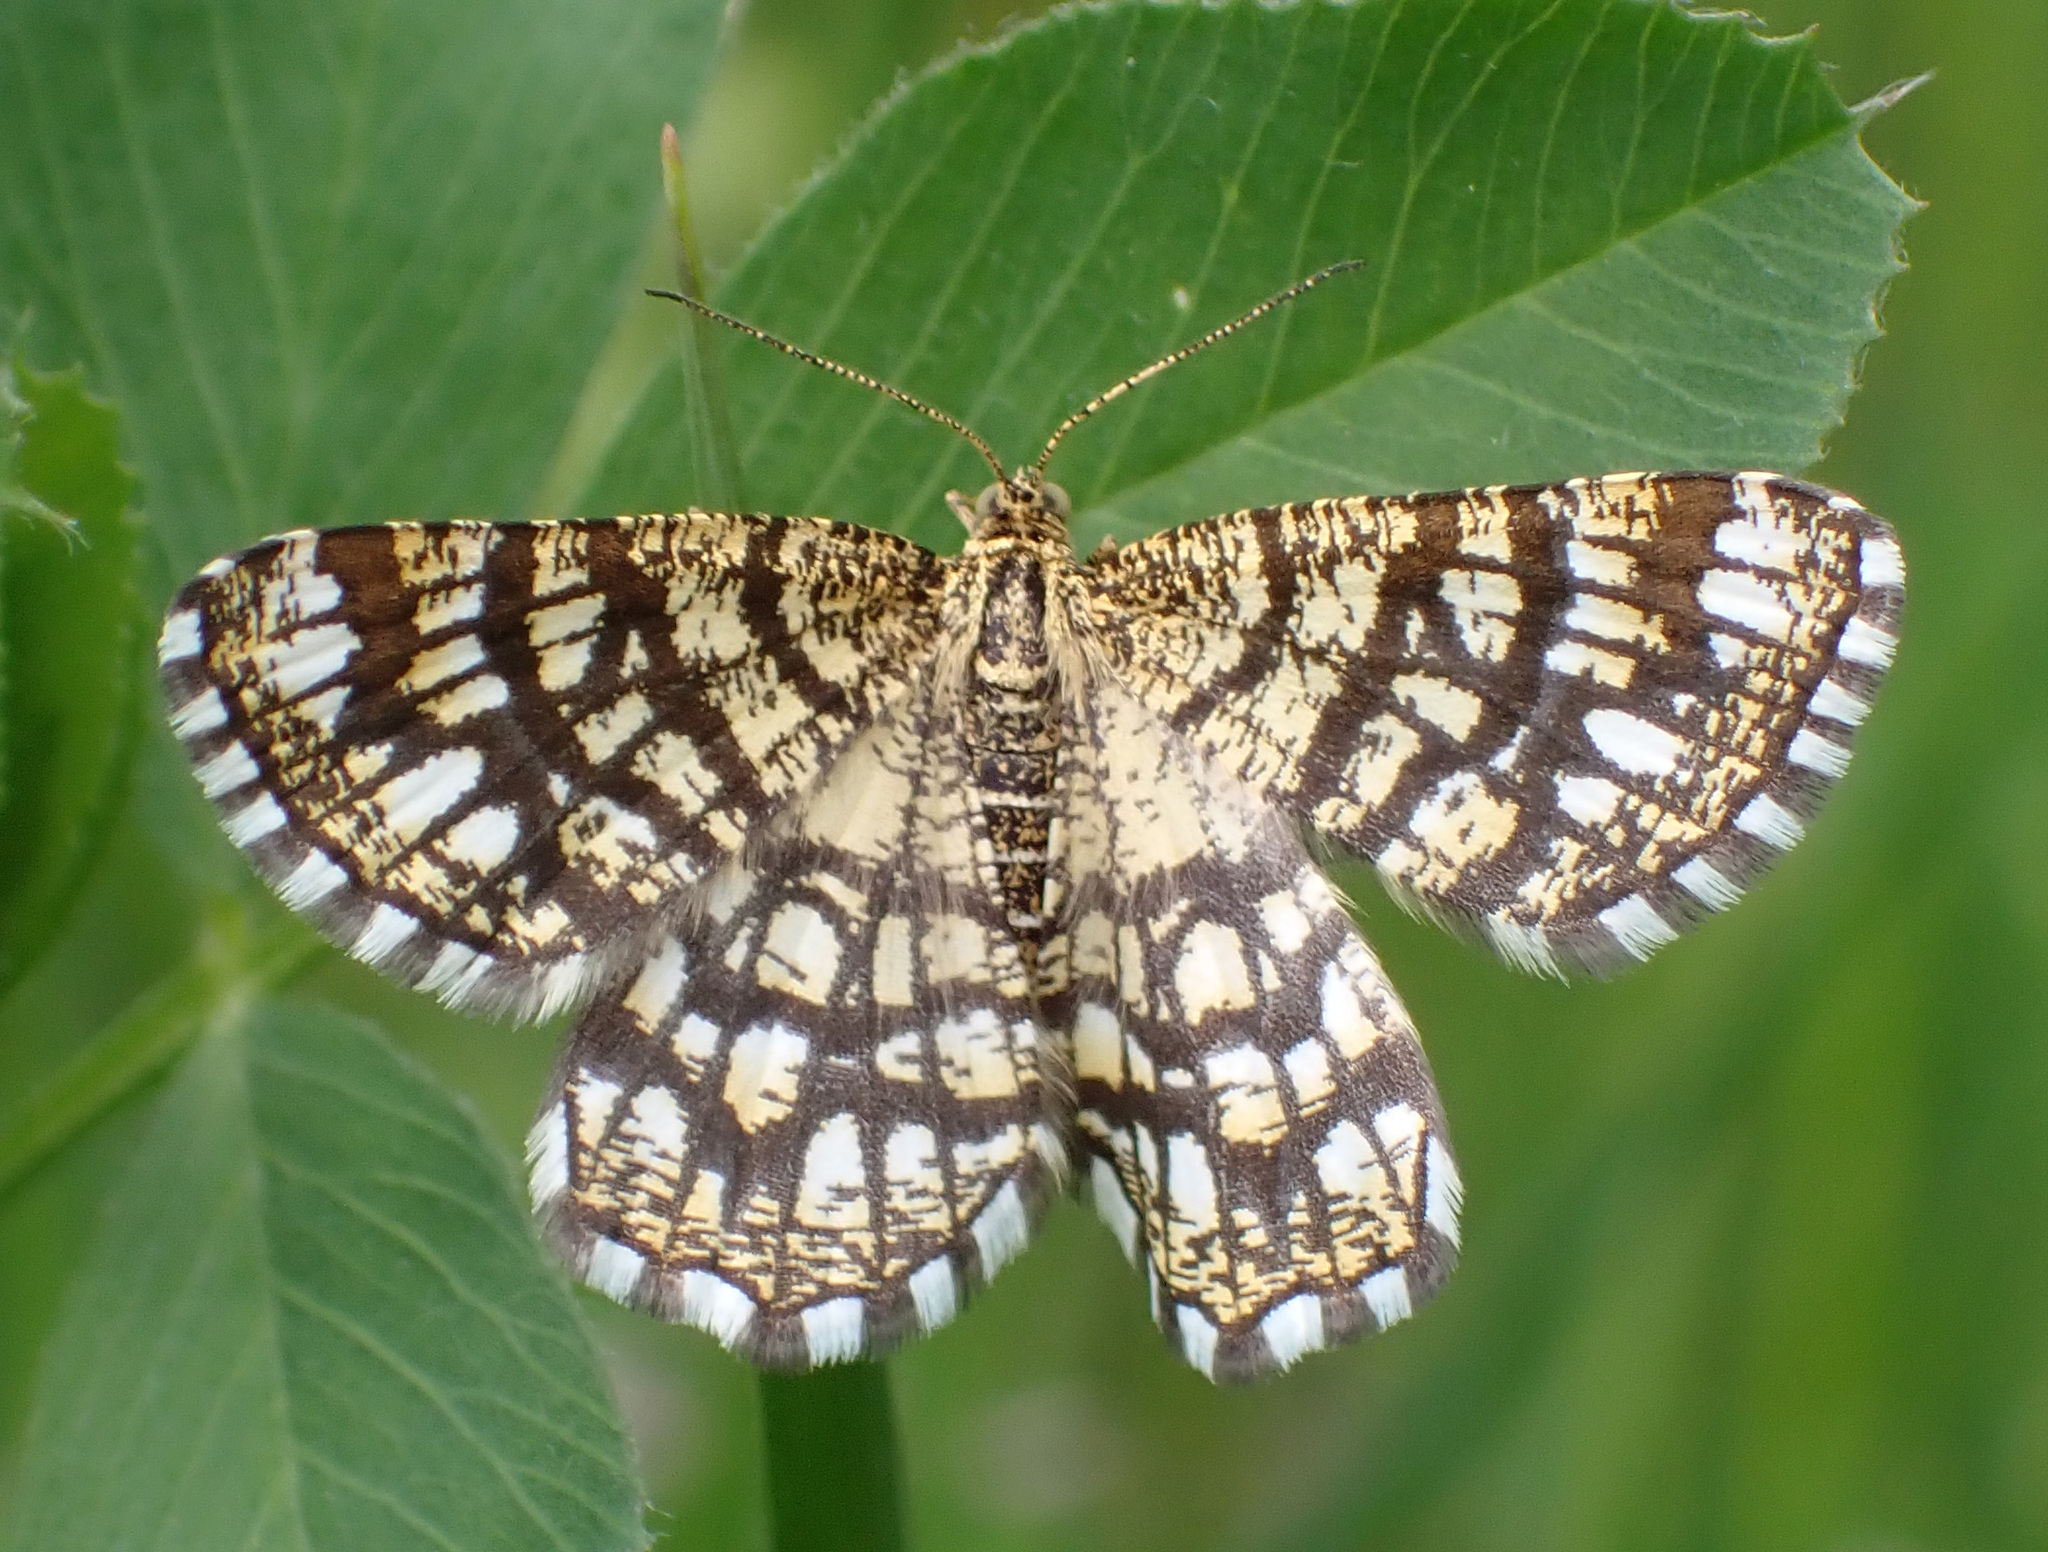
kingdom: Animalia
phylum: Arthropoda
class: Insecta
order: Lepidoptera
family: Geometridae
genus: Chiasmia
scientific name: Chiasmia clathrata
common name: Latticed heath
